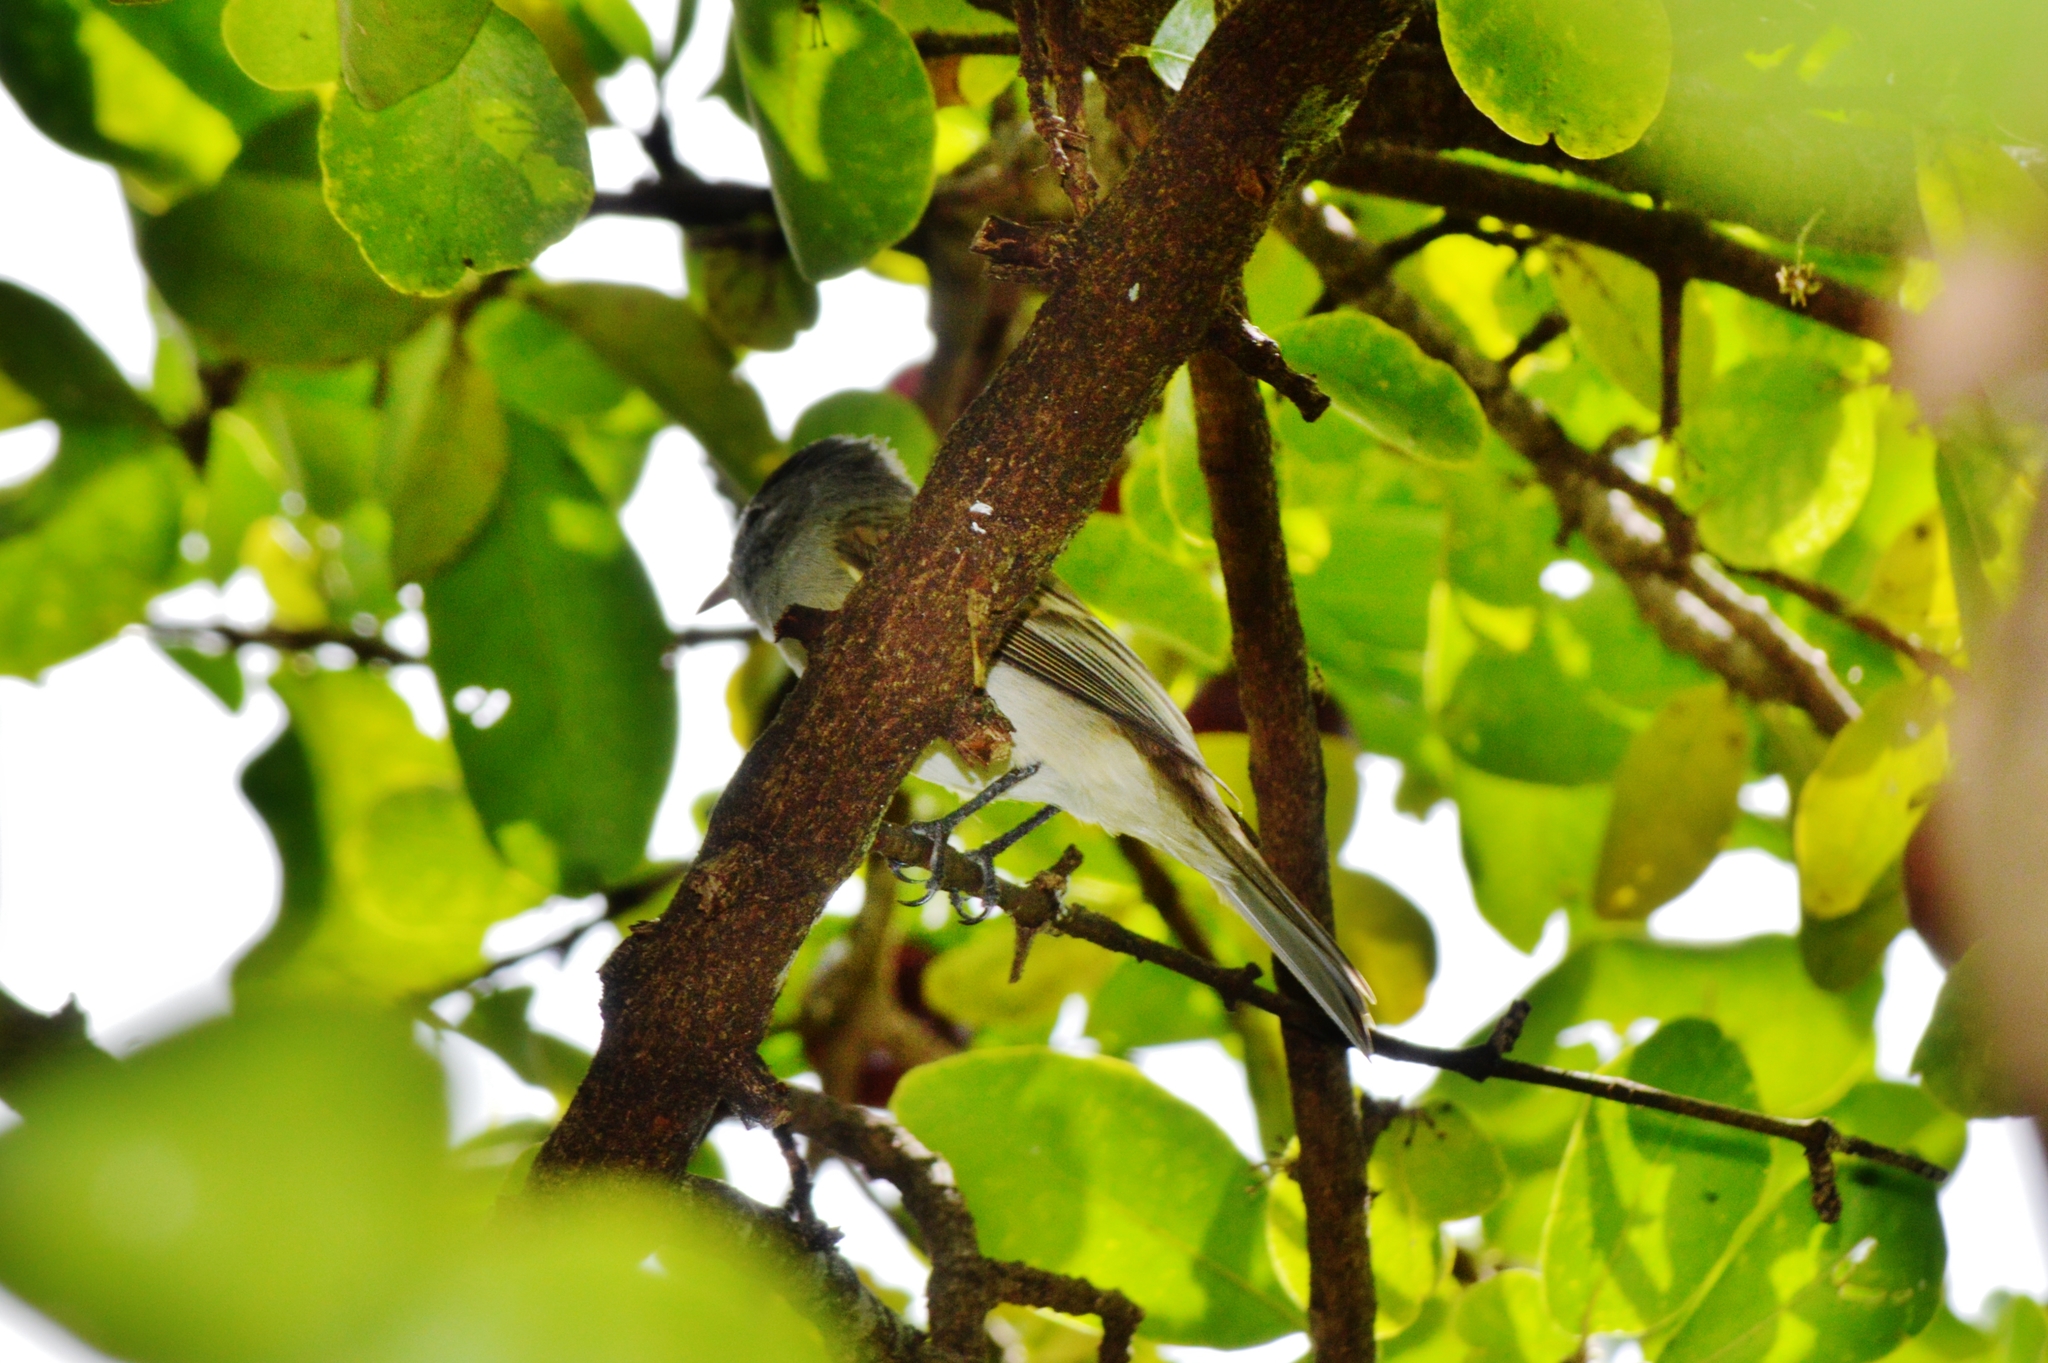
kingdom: Animalia
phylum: Chordata
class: Aves
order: Passeriformes
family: Tyrannidae
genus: Camptostoma
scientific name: Camptostoma obsoletum
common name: Southern beardless-tyrannulet
